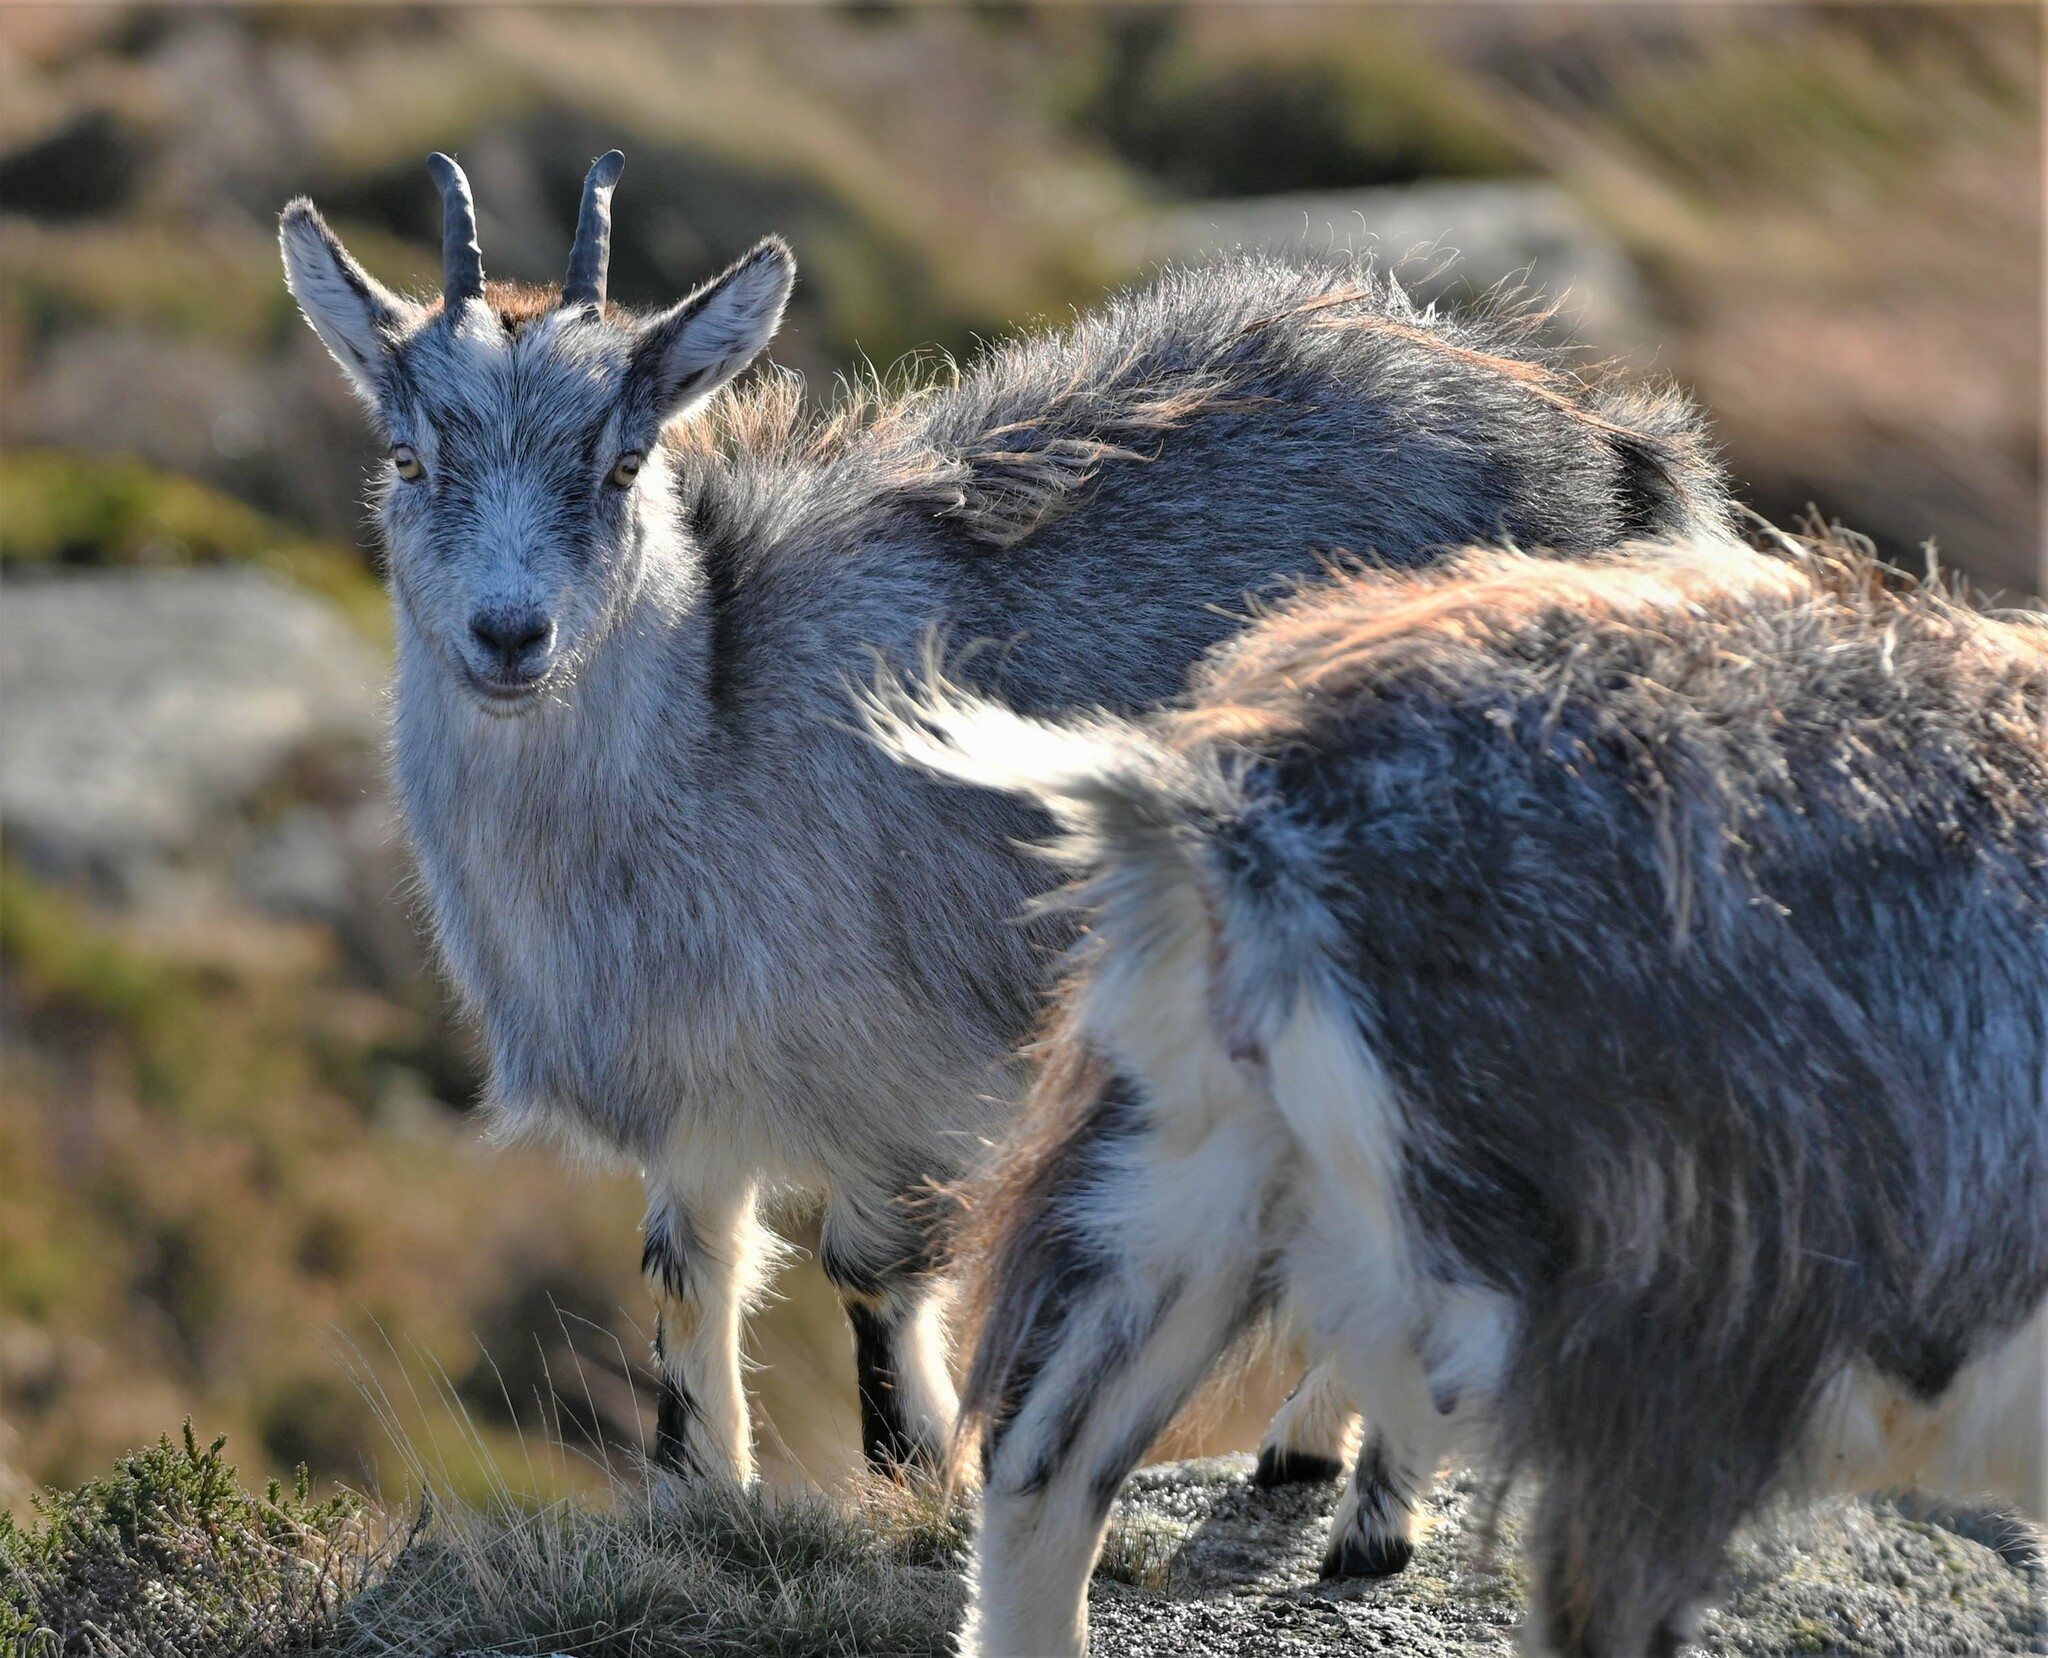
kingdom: Animalia
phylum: Chordata
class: Mammalia
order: Artiodactyla
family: Bovidae
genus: Capra
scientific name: Capra hircus
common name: Domestic goat
